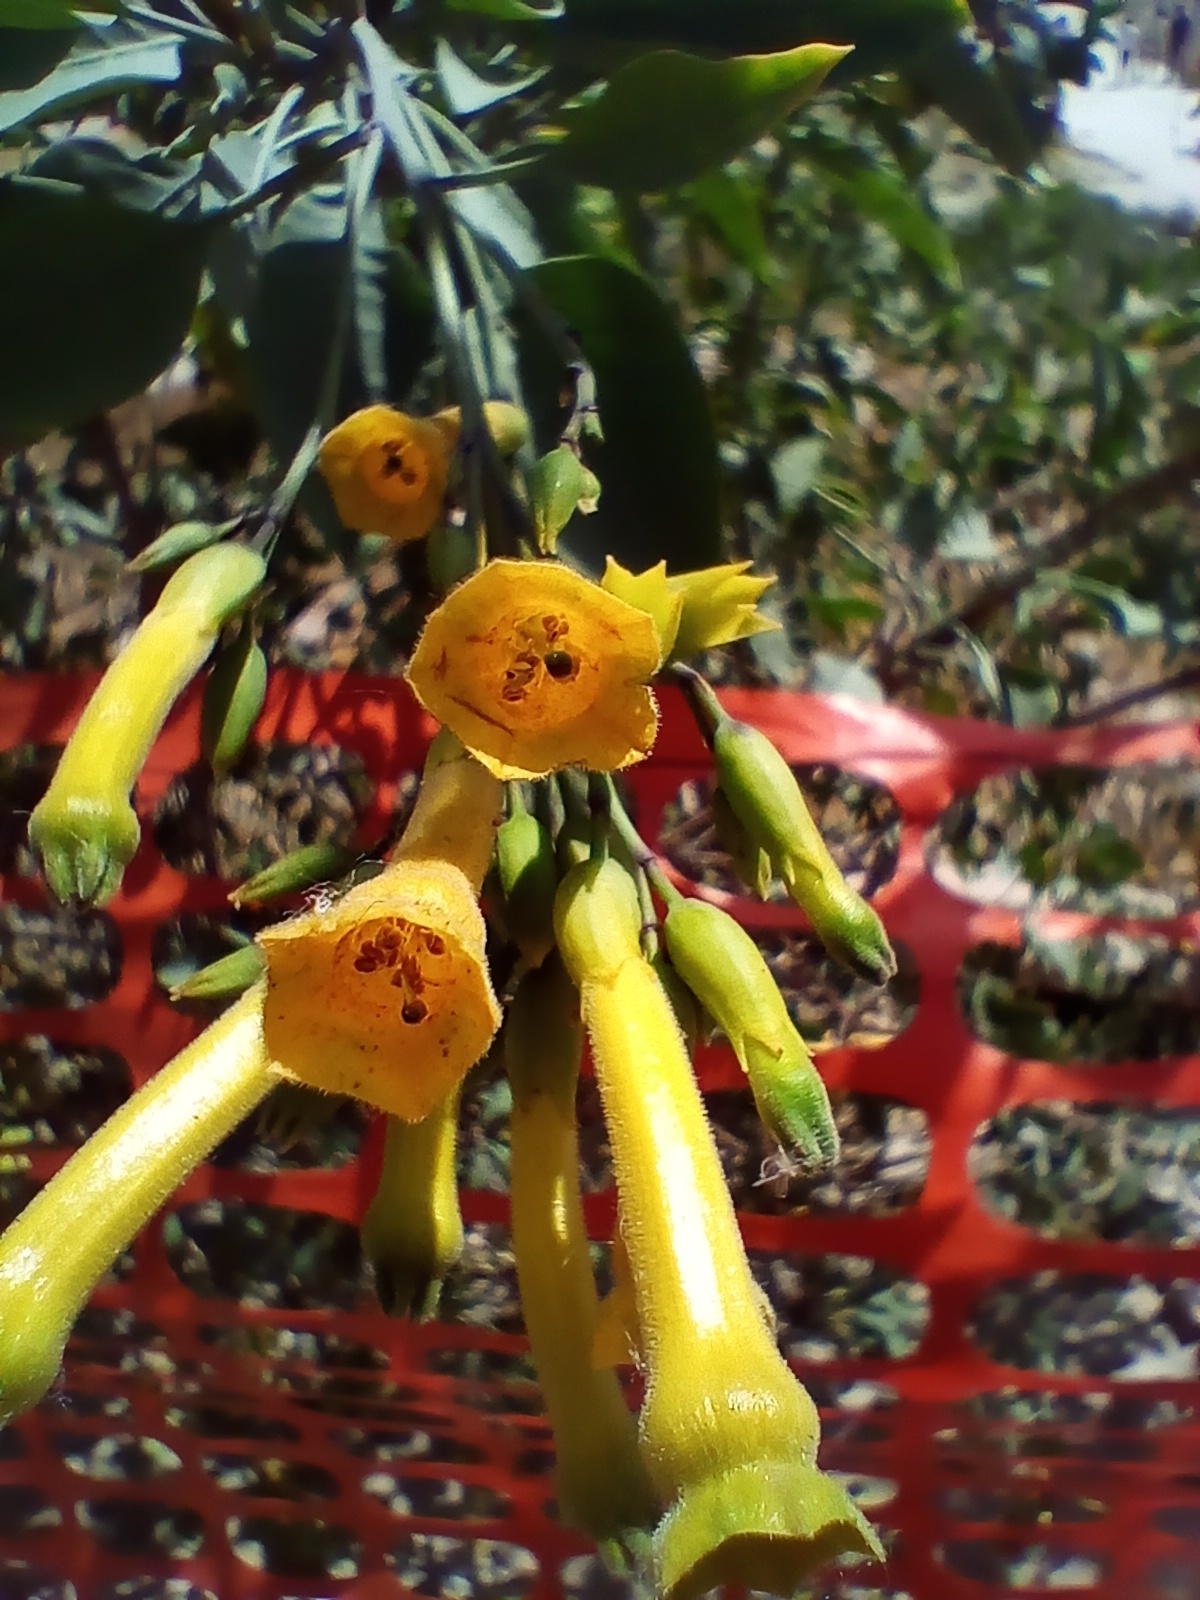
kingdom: Plantae
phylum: Tracheophyta
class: Magnoliopsida
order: Solanales
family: Solanaceae
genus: Nicotiana
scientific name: Nicotiana glauca
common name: Tree tobacco
